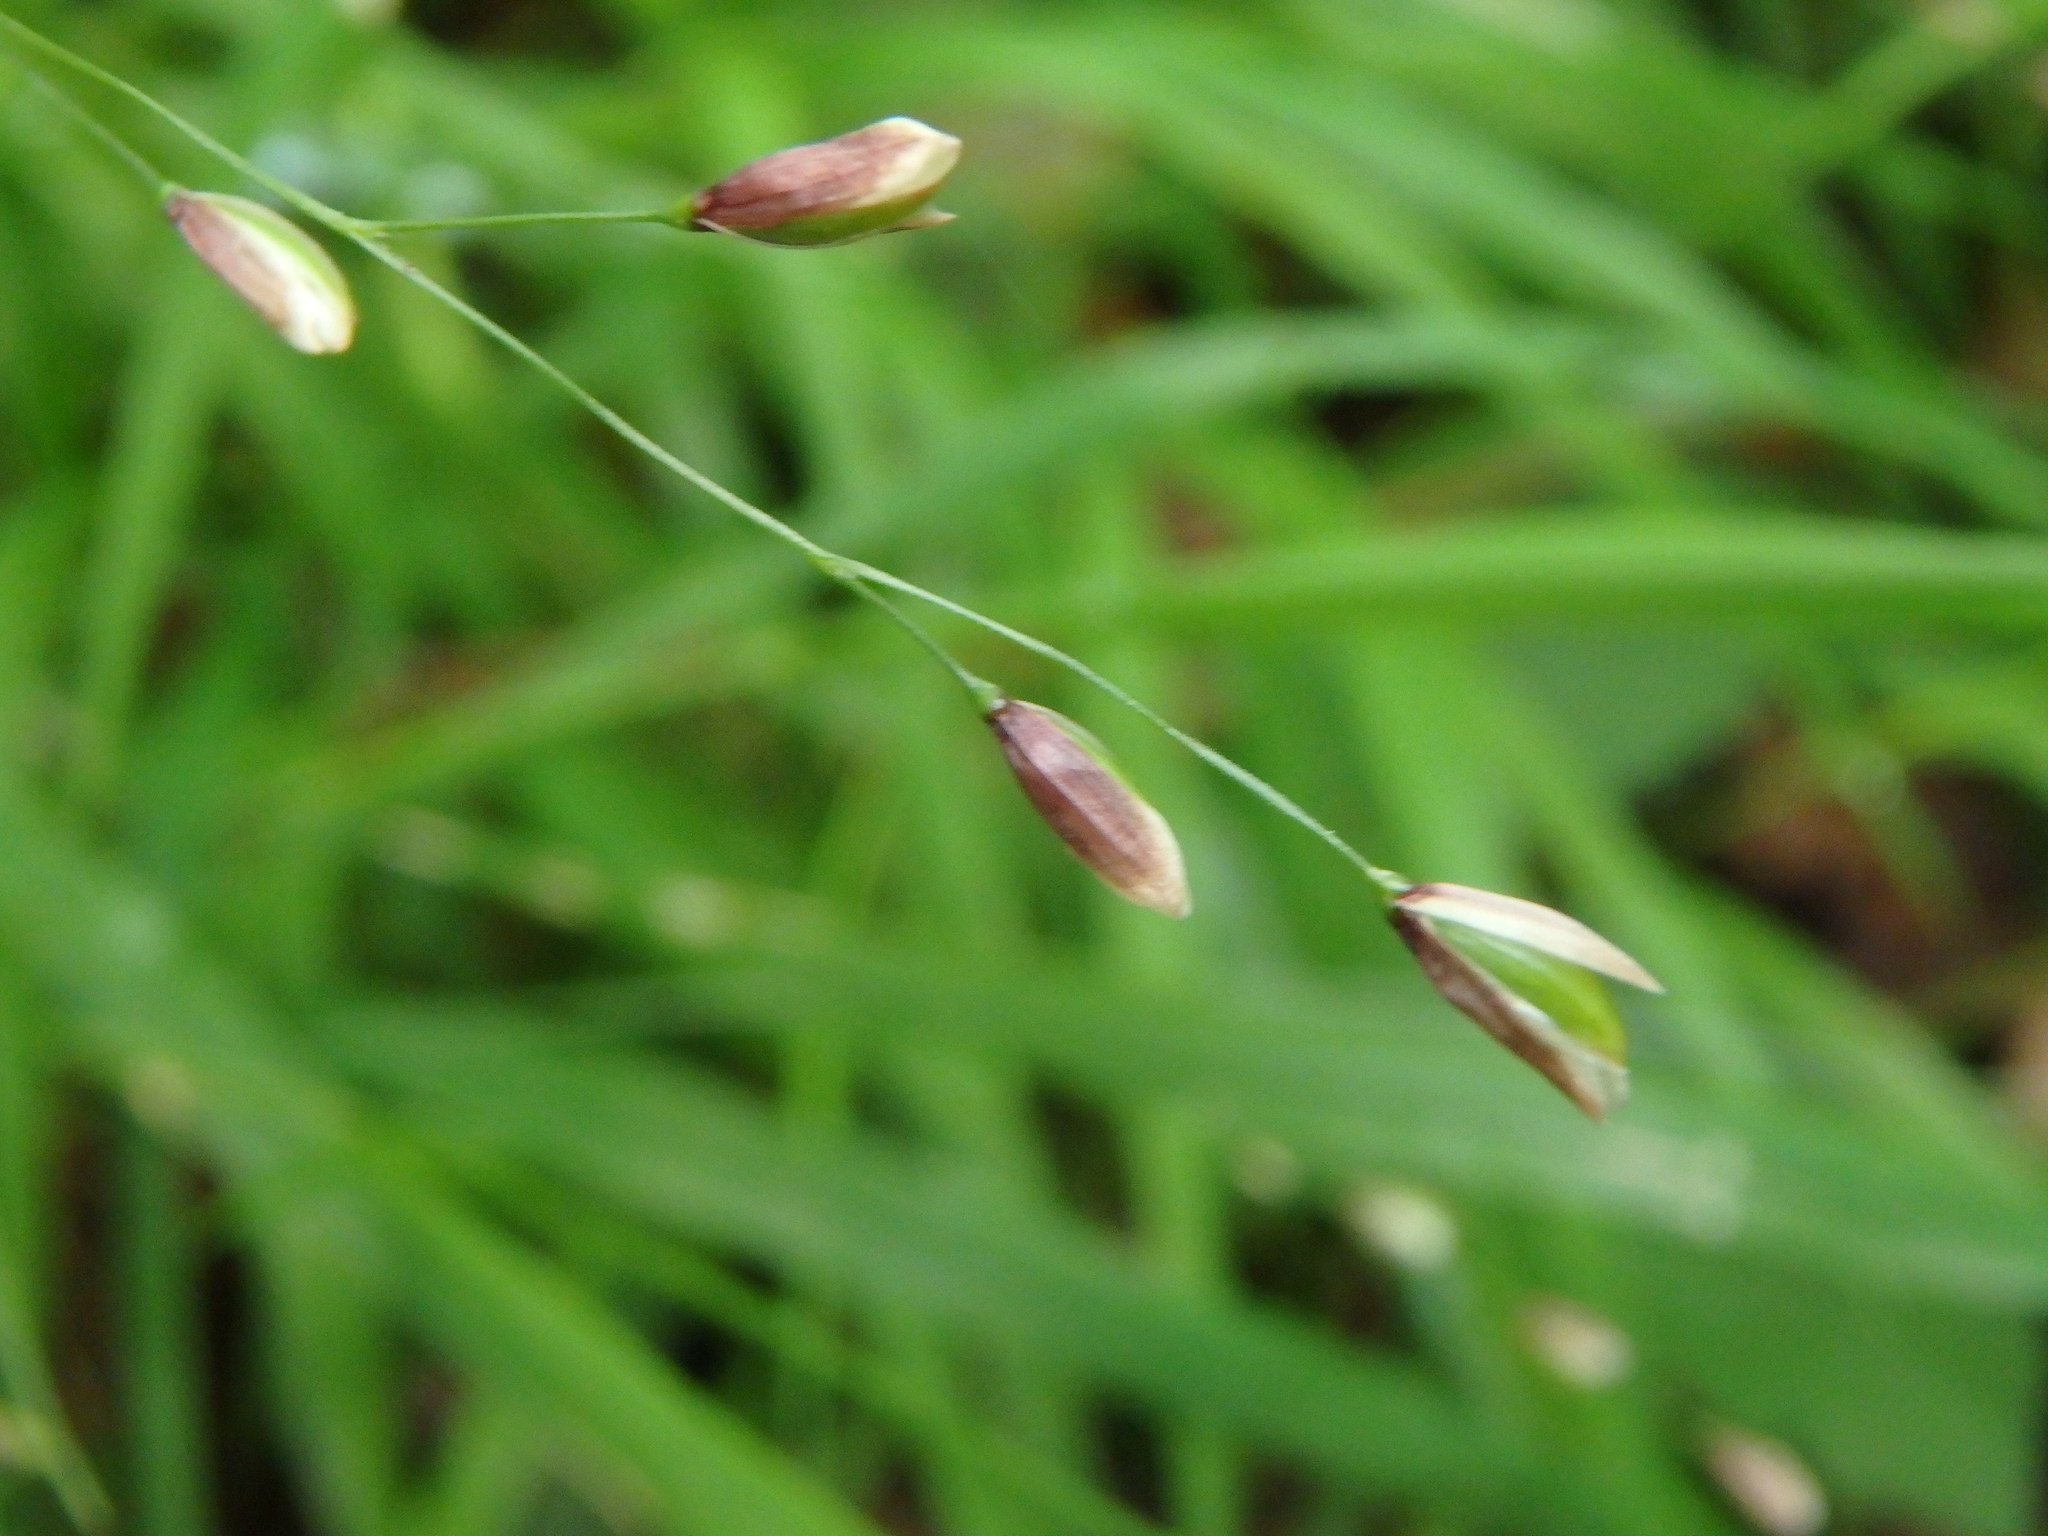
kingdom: Plantae
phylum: Tracheophyta
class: Liliopsida
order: Poales
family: Poaceae
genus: Melica
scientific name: Melica uniflora
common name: Wood melick
